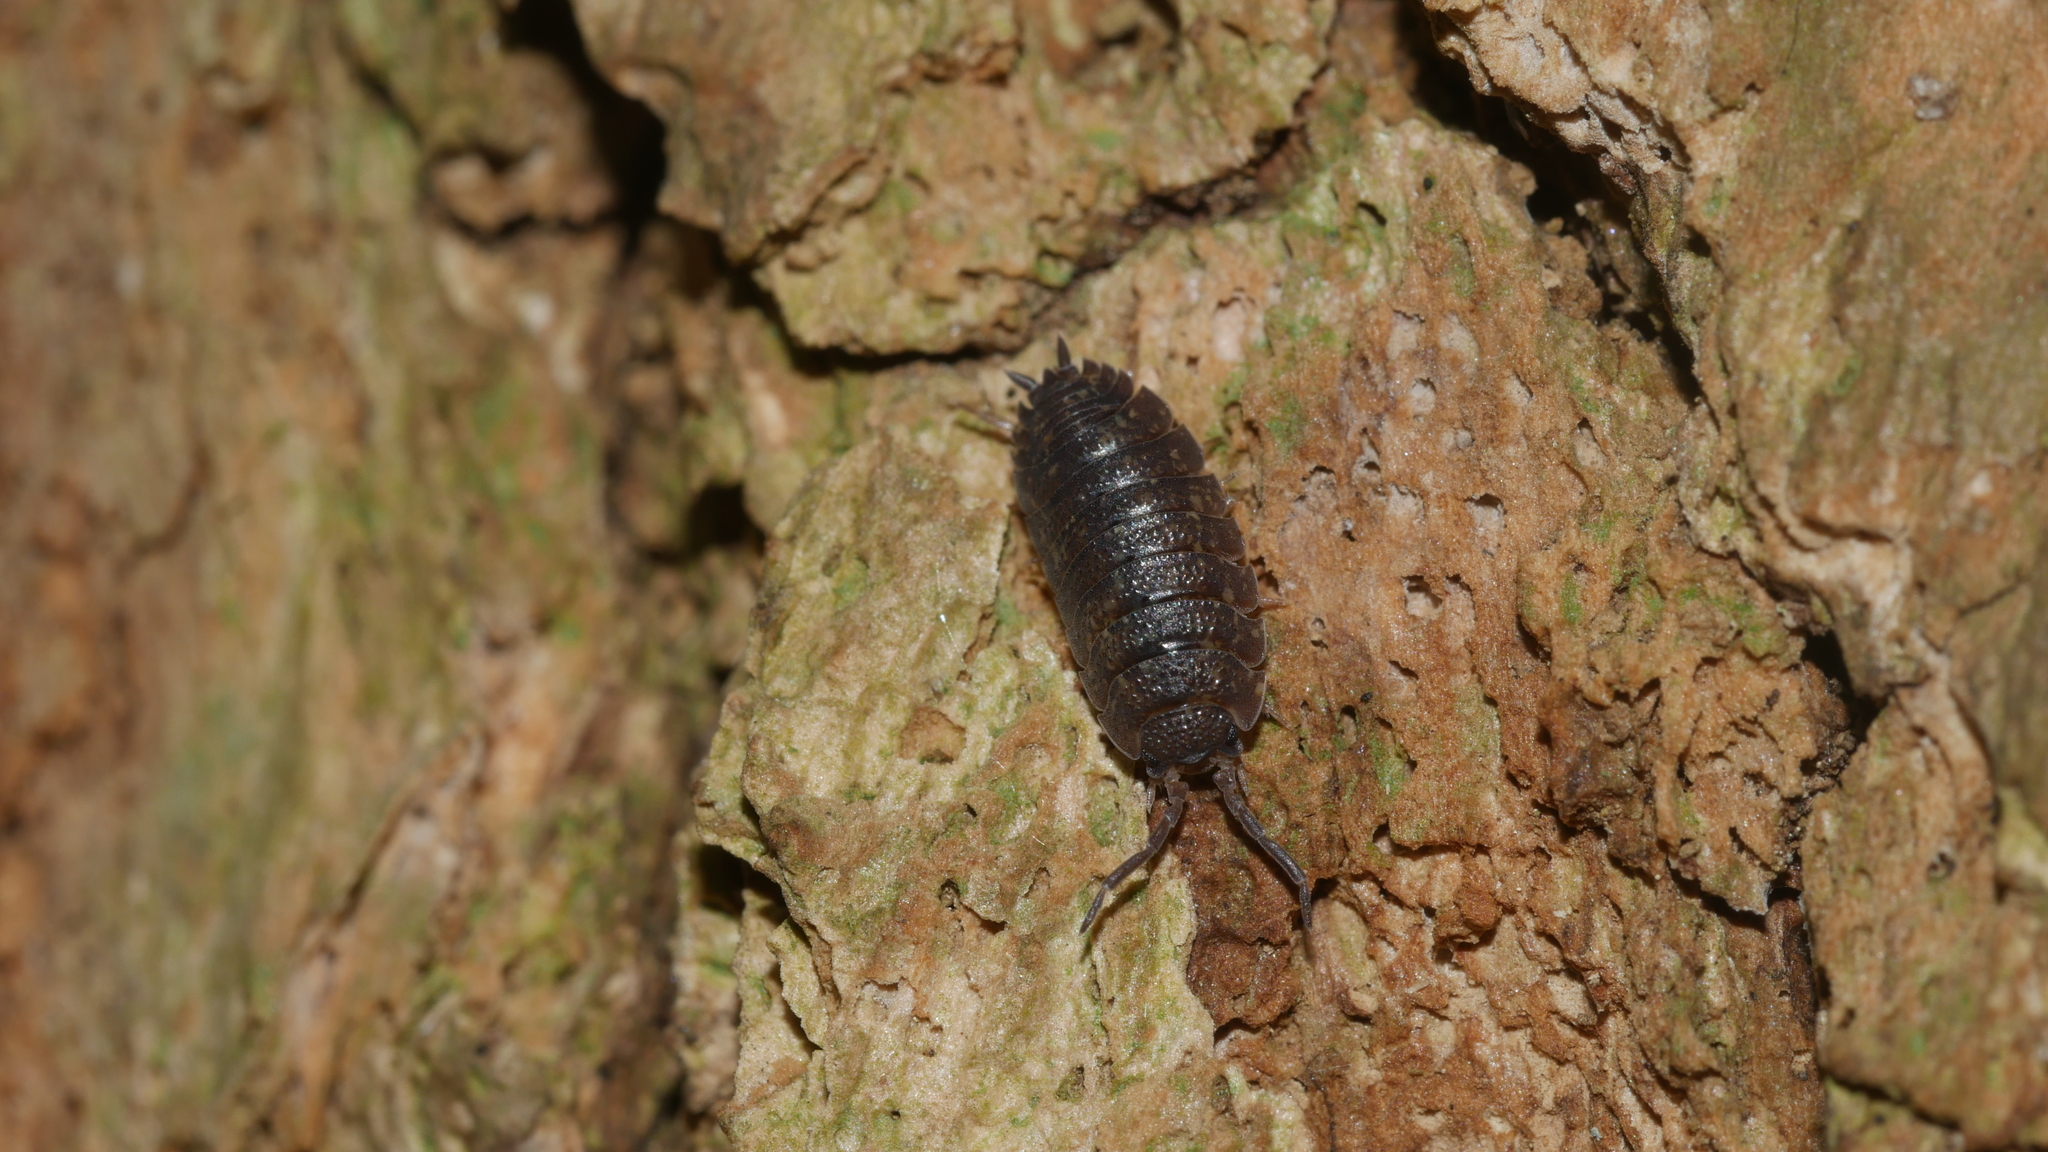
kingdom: Animalia
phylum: Arthropoda
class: Malacostraca
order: Isopoda
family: Porcellionidae
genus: Porcellio
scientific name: Porcellio scaber
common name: Common rough woodlouse
